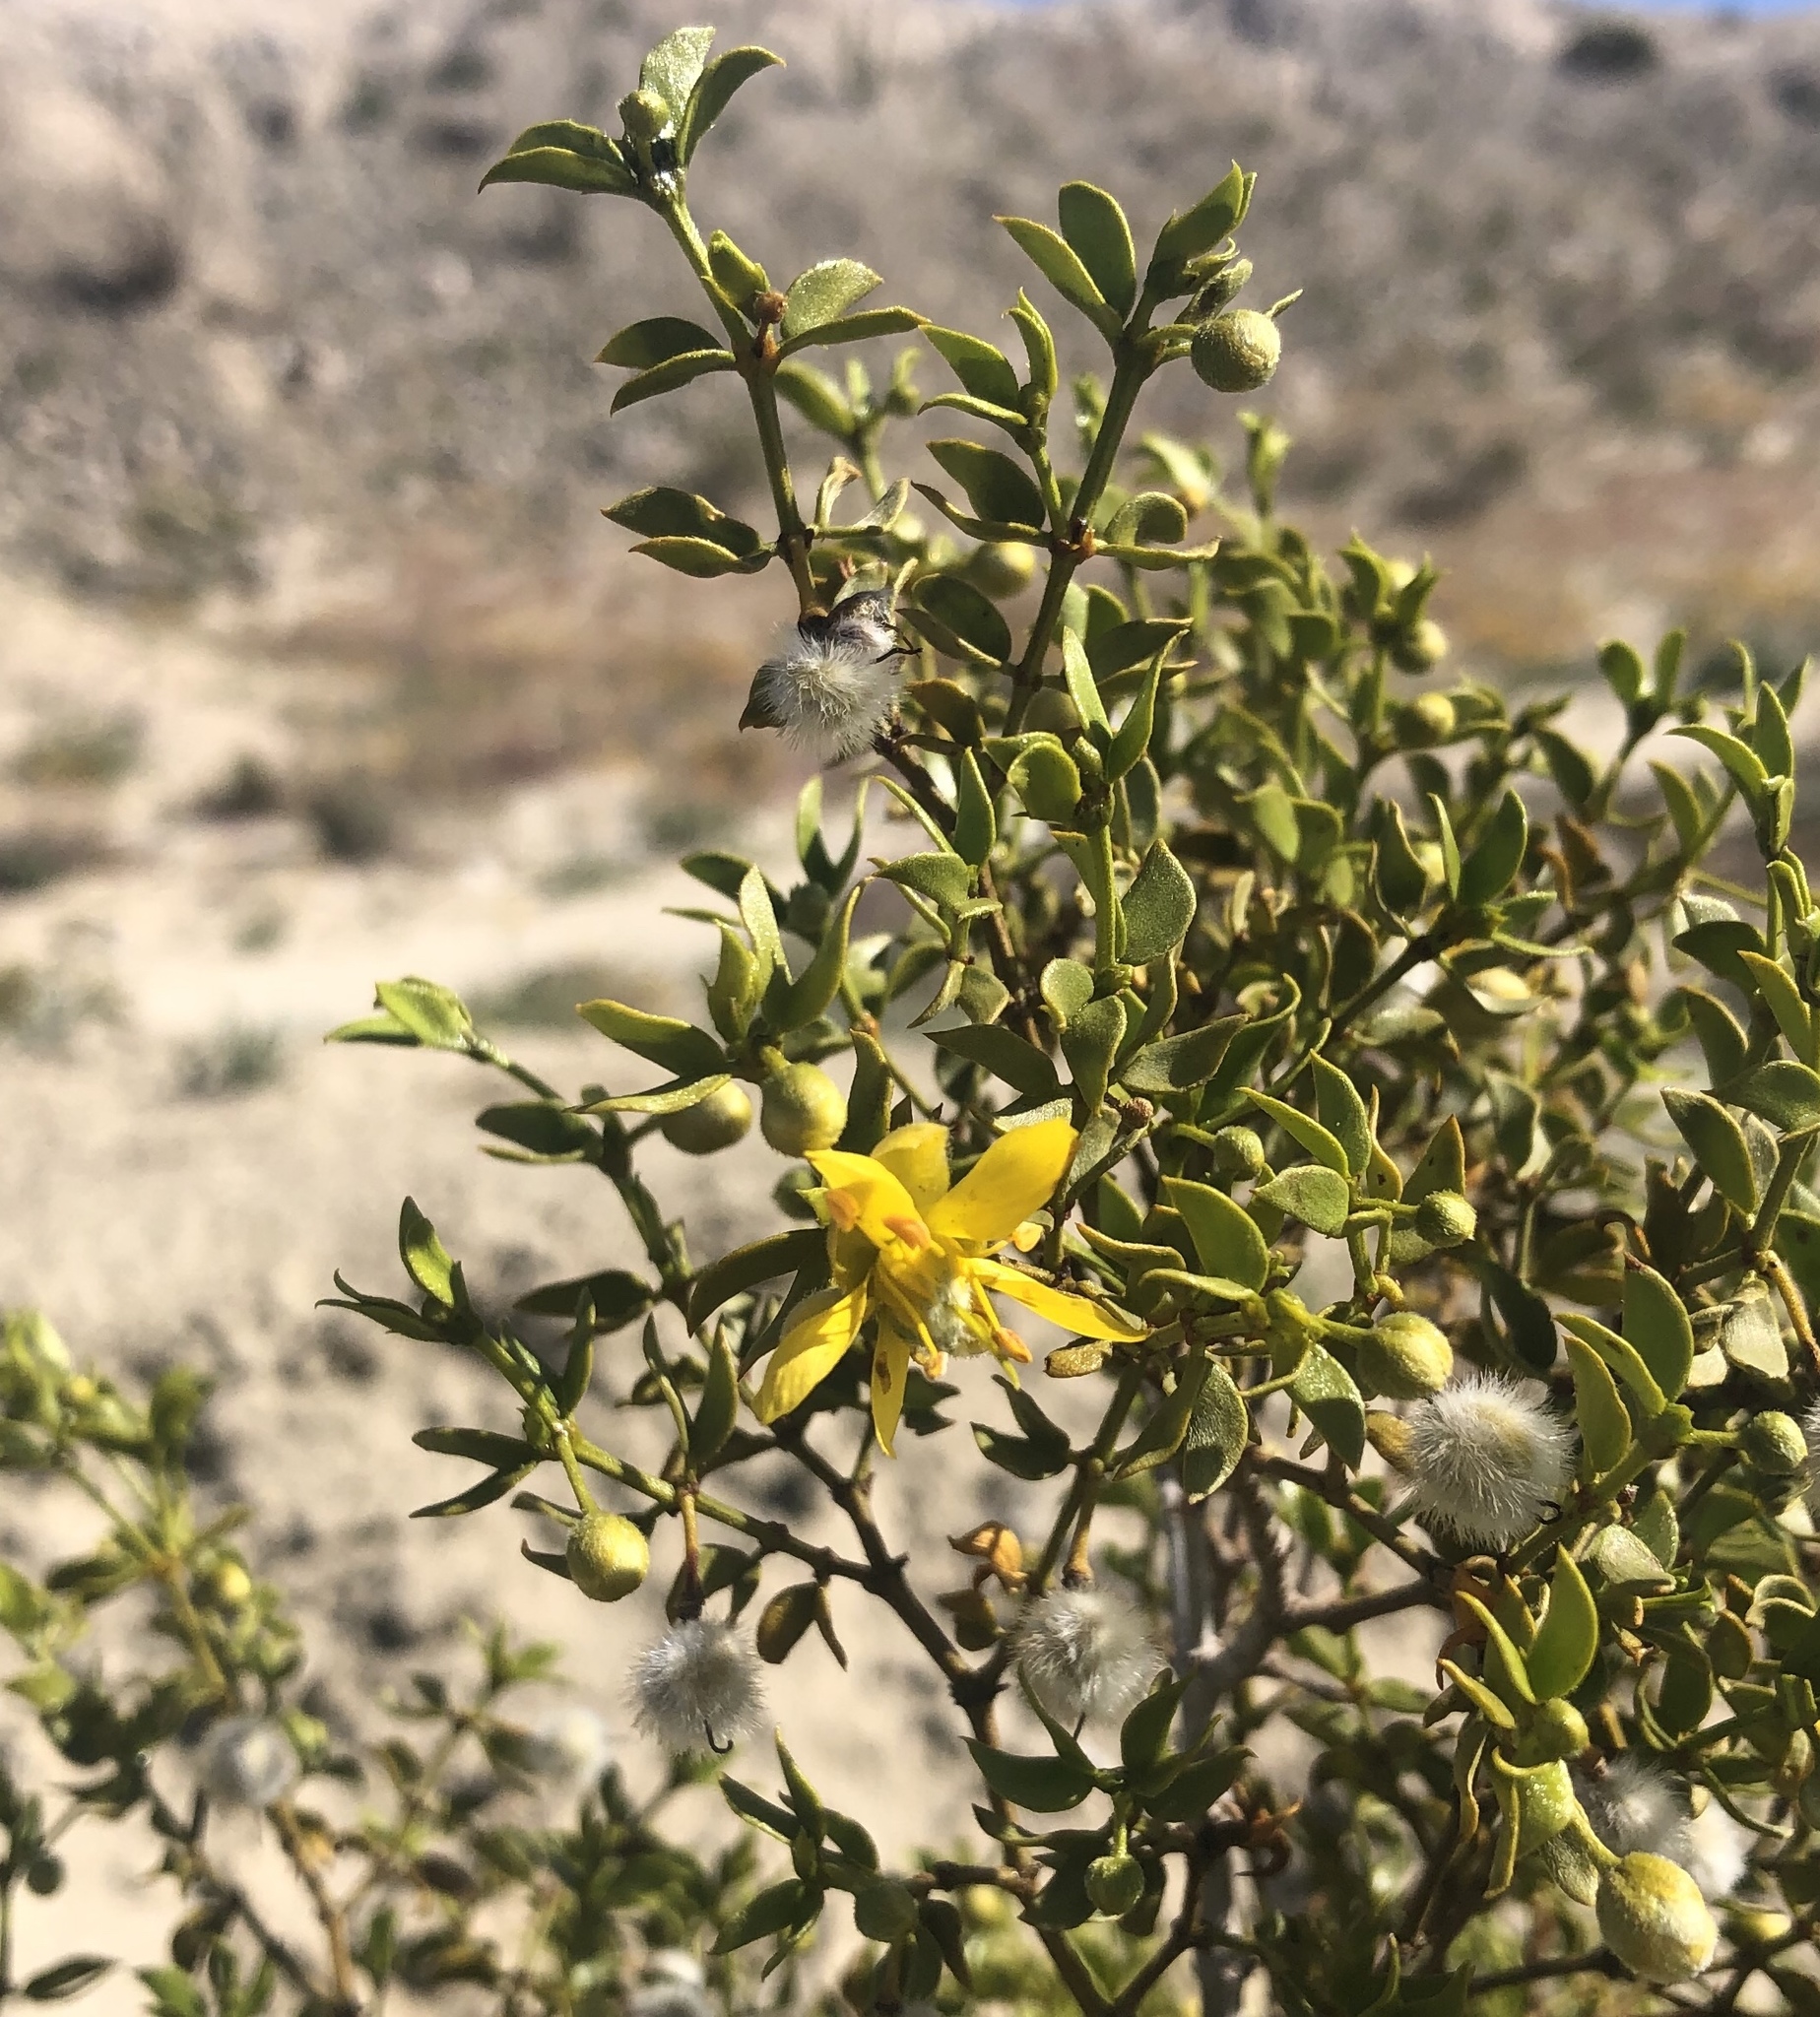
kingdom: Plantae
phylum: Tracheophyta
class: Magnoliopsida
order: Zygophyllales
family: Zygophyllaceae
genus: Larrea
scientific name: Larrea tridentata
